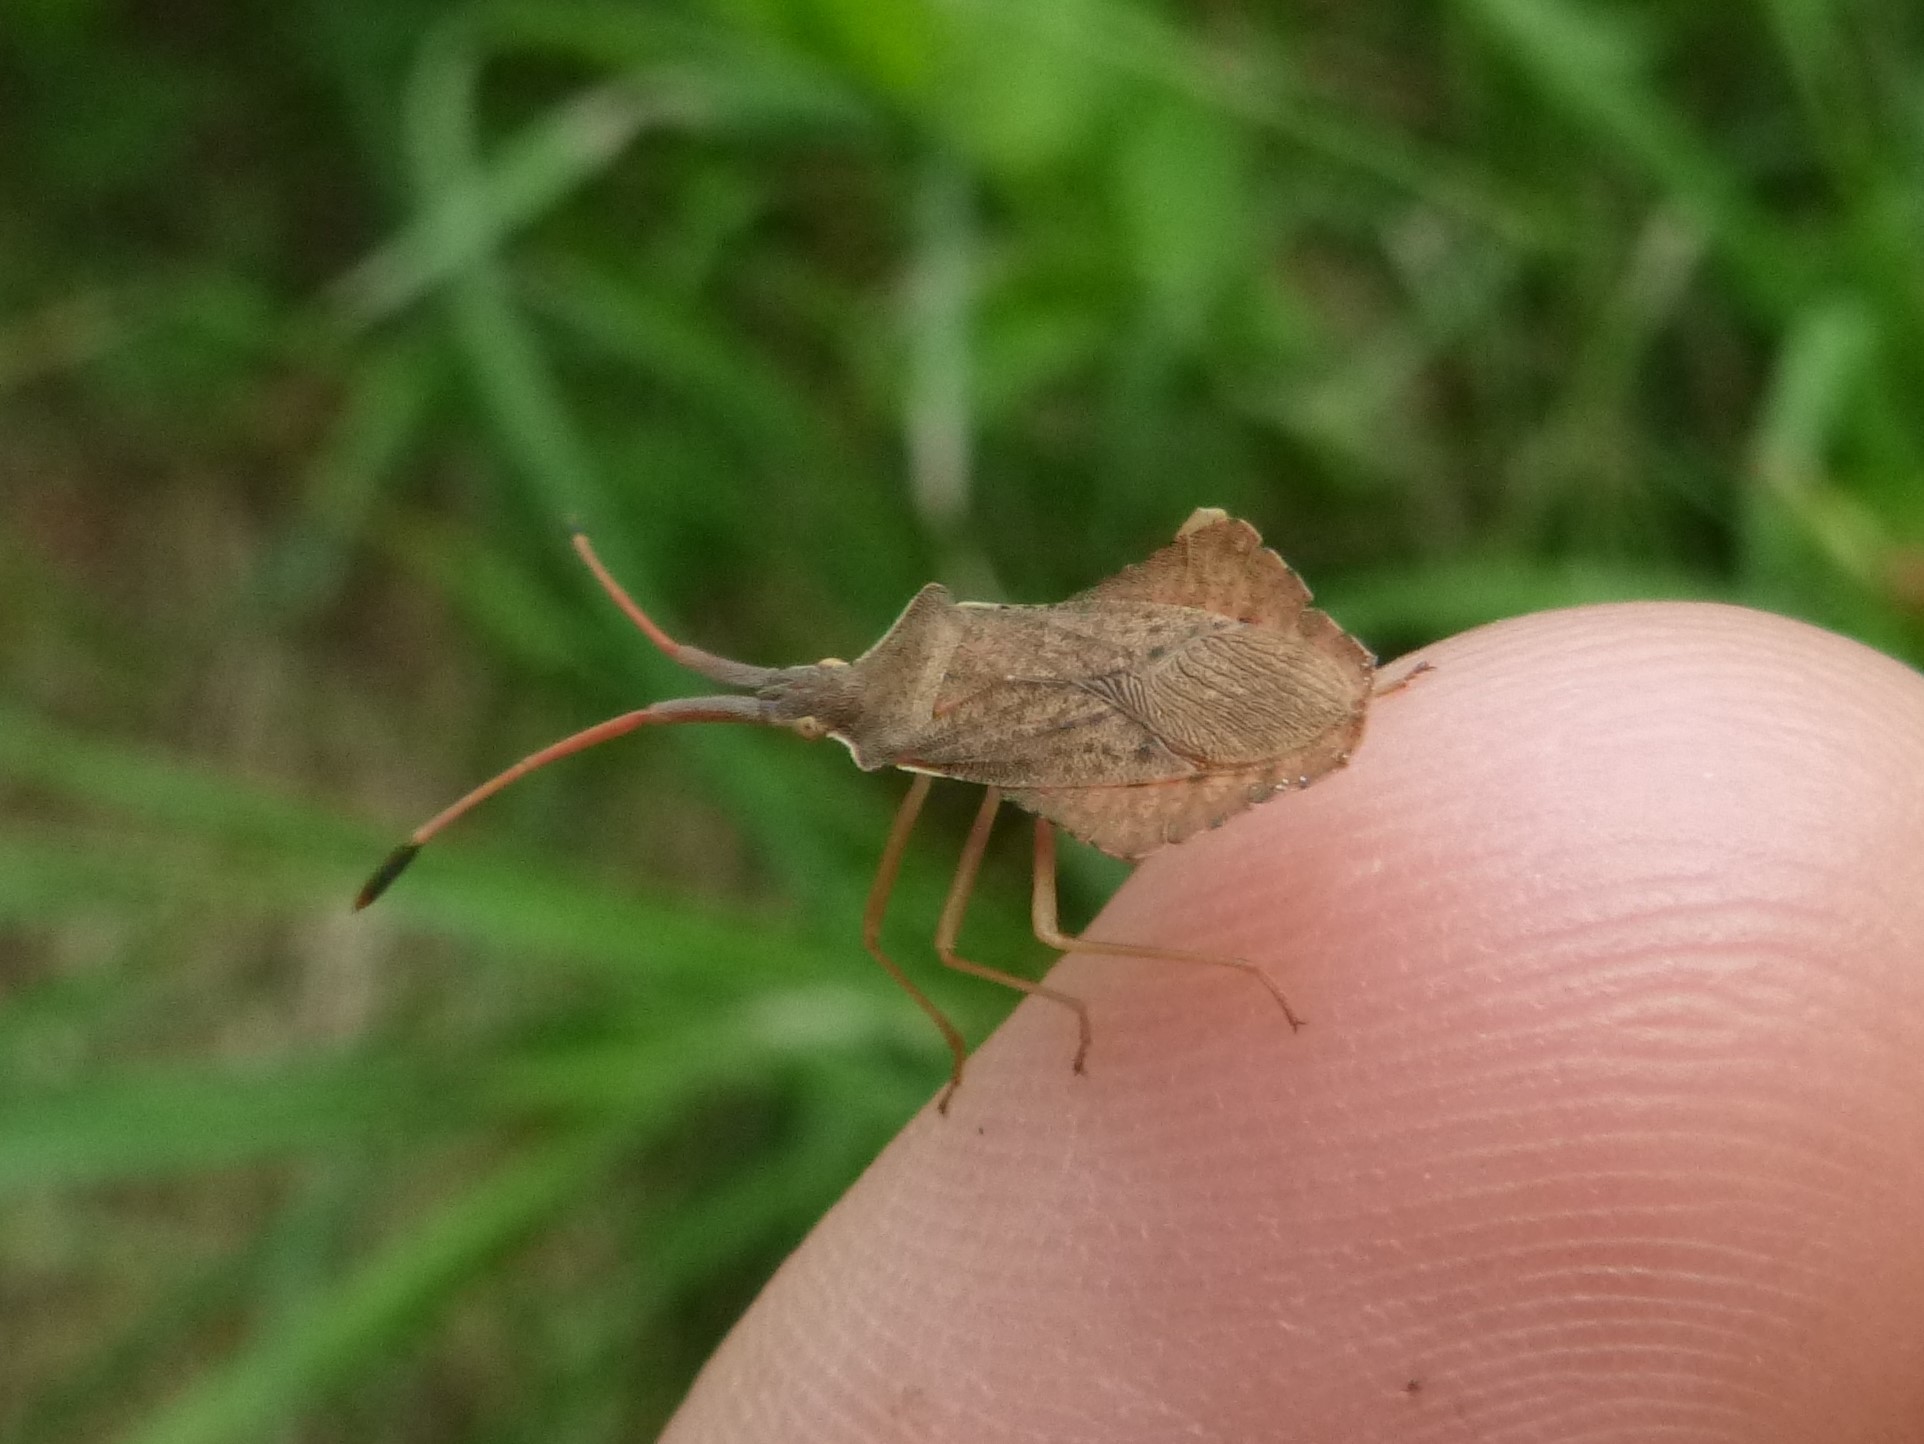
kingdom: Animalia
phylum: Arthropoda
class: Insecta
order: Hemiptera
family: Coreidae
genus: Syromastus
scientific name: Syromastus rhombeus
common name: Rhombic leatherbug
